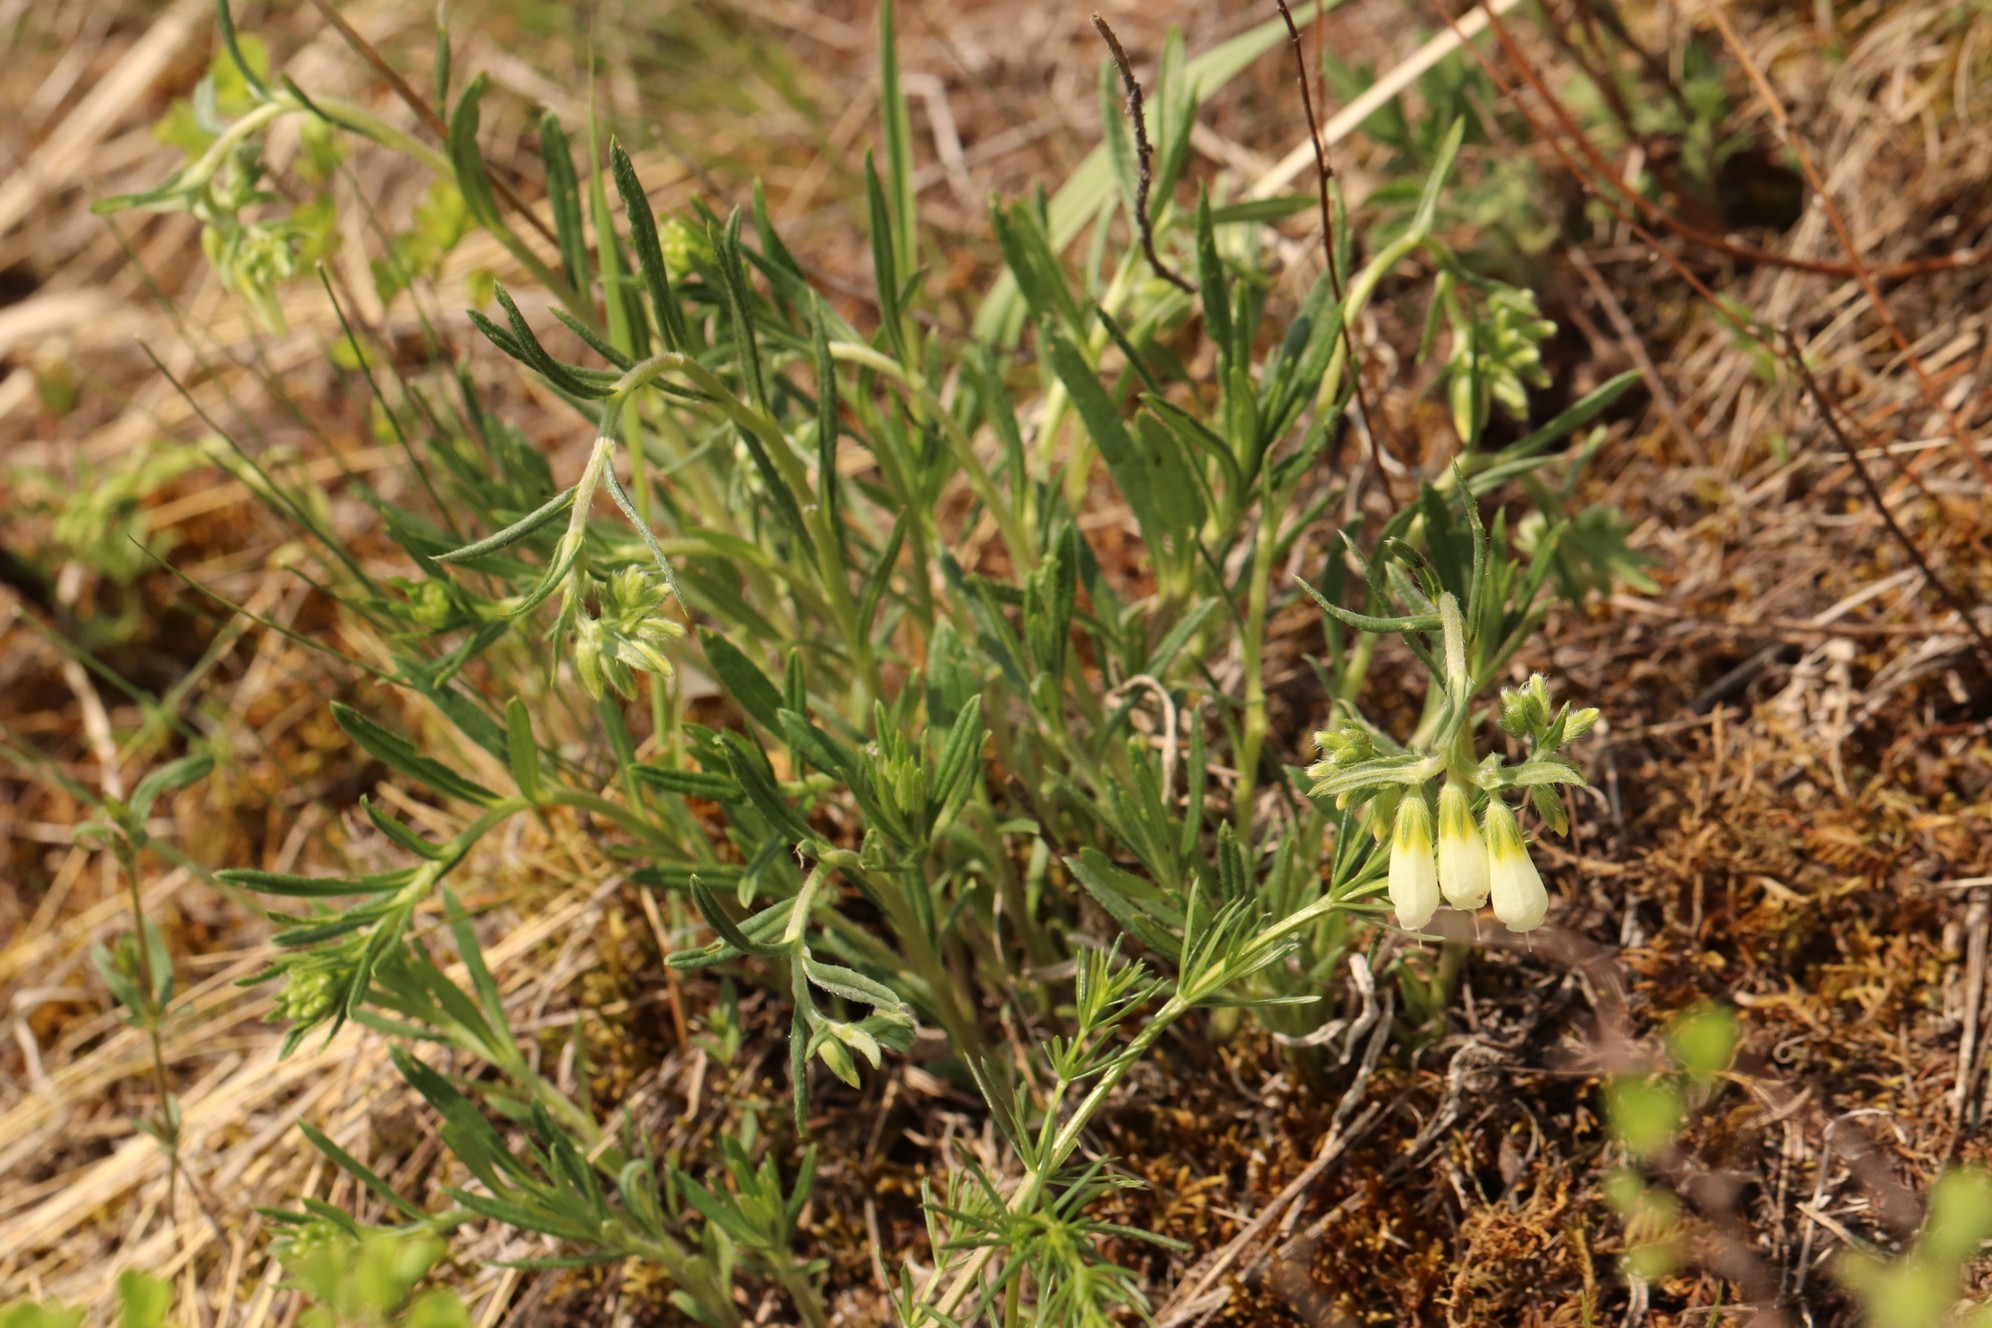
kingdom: Plantae
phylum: Tracheophyta
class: Magnoliopsida
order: Boraginales
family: Boraginaceae
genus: Onosma
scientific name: Onosma simplicissima
